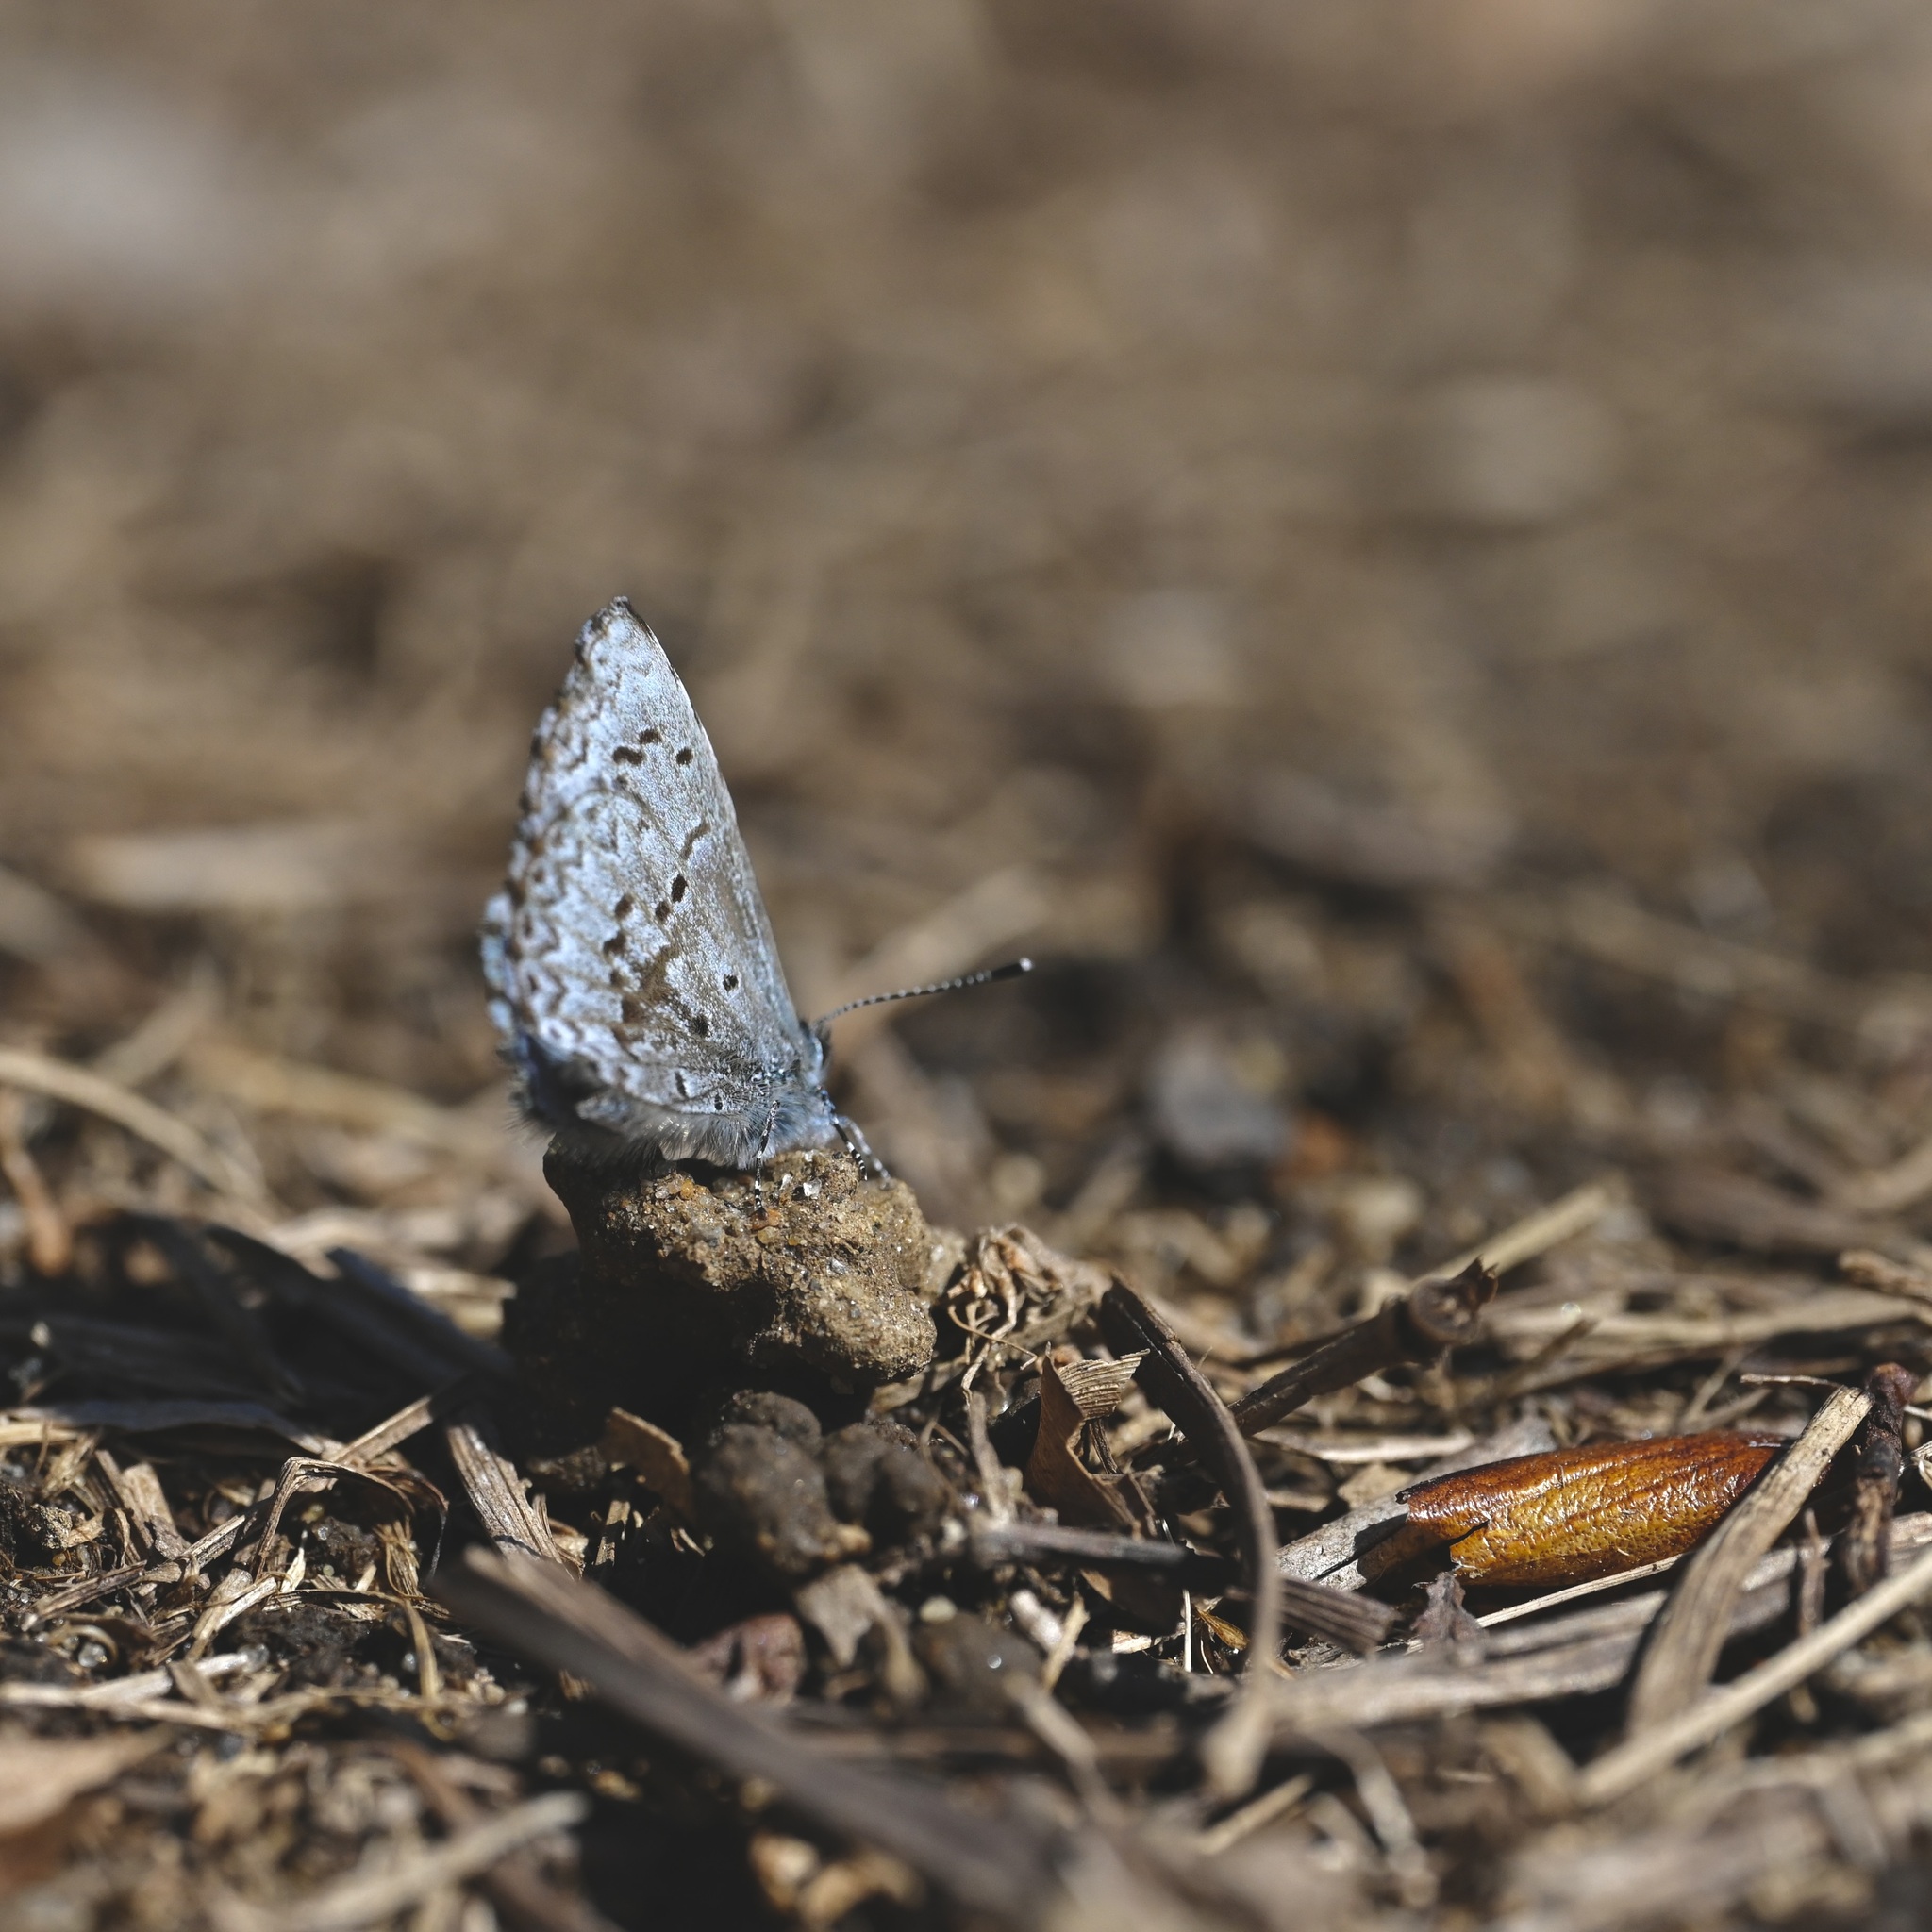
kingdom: Animalia
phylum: Arthropoda
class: Insecta
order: Lepidoptera
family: Lycaenidae
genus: Celastrina
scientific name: Celastrina lucia
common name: Lucia azure
